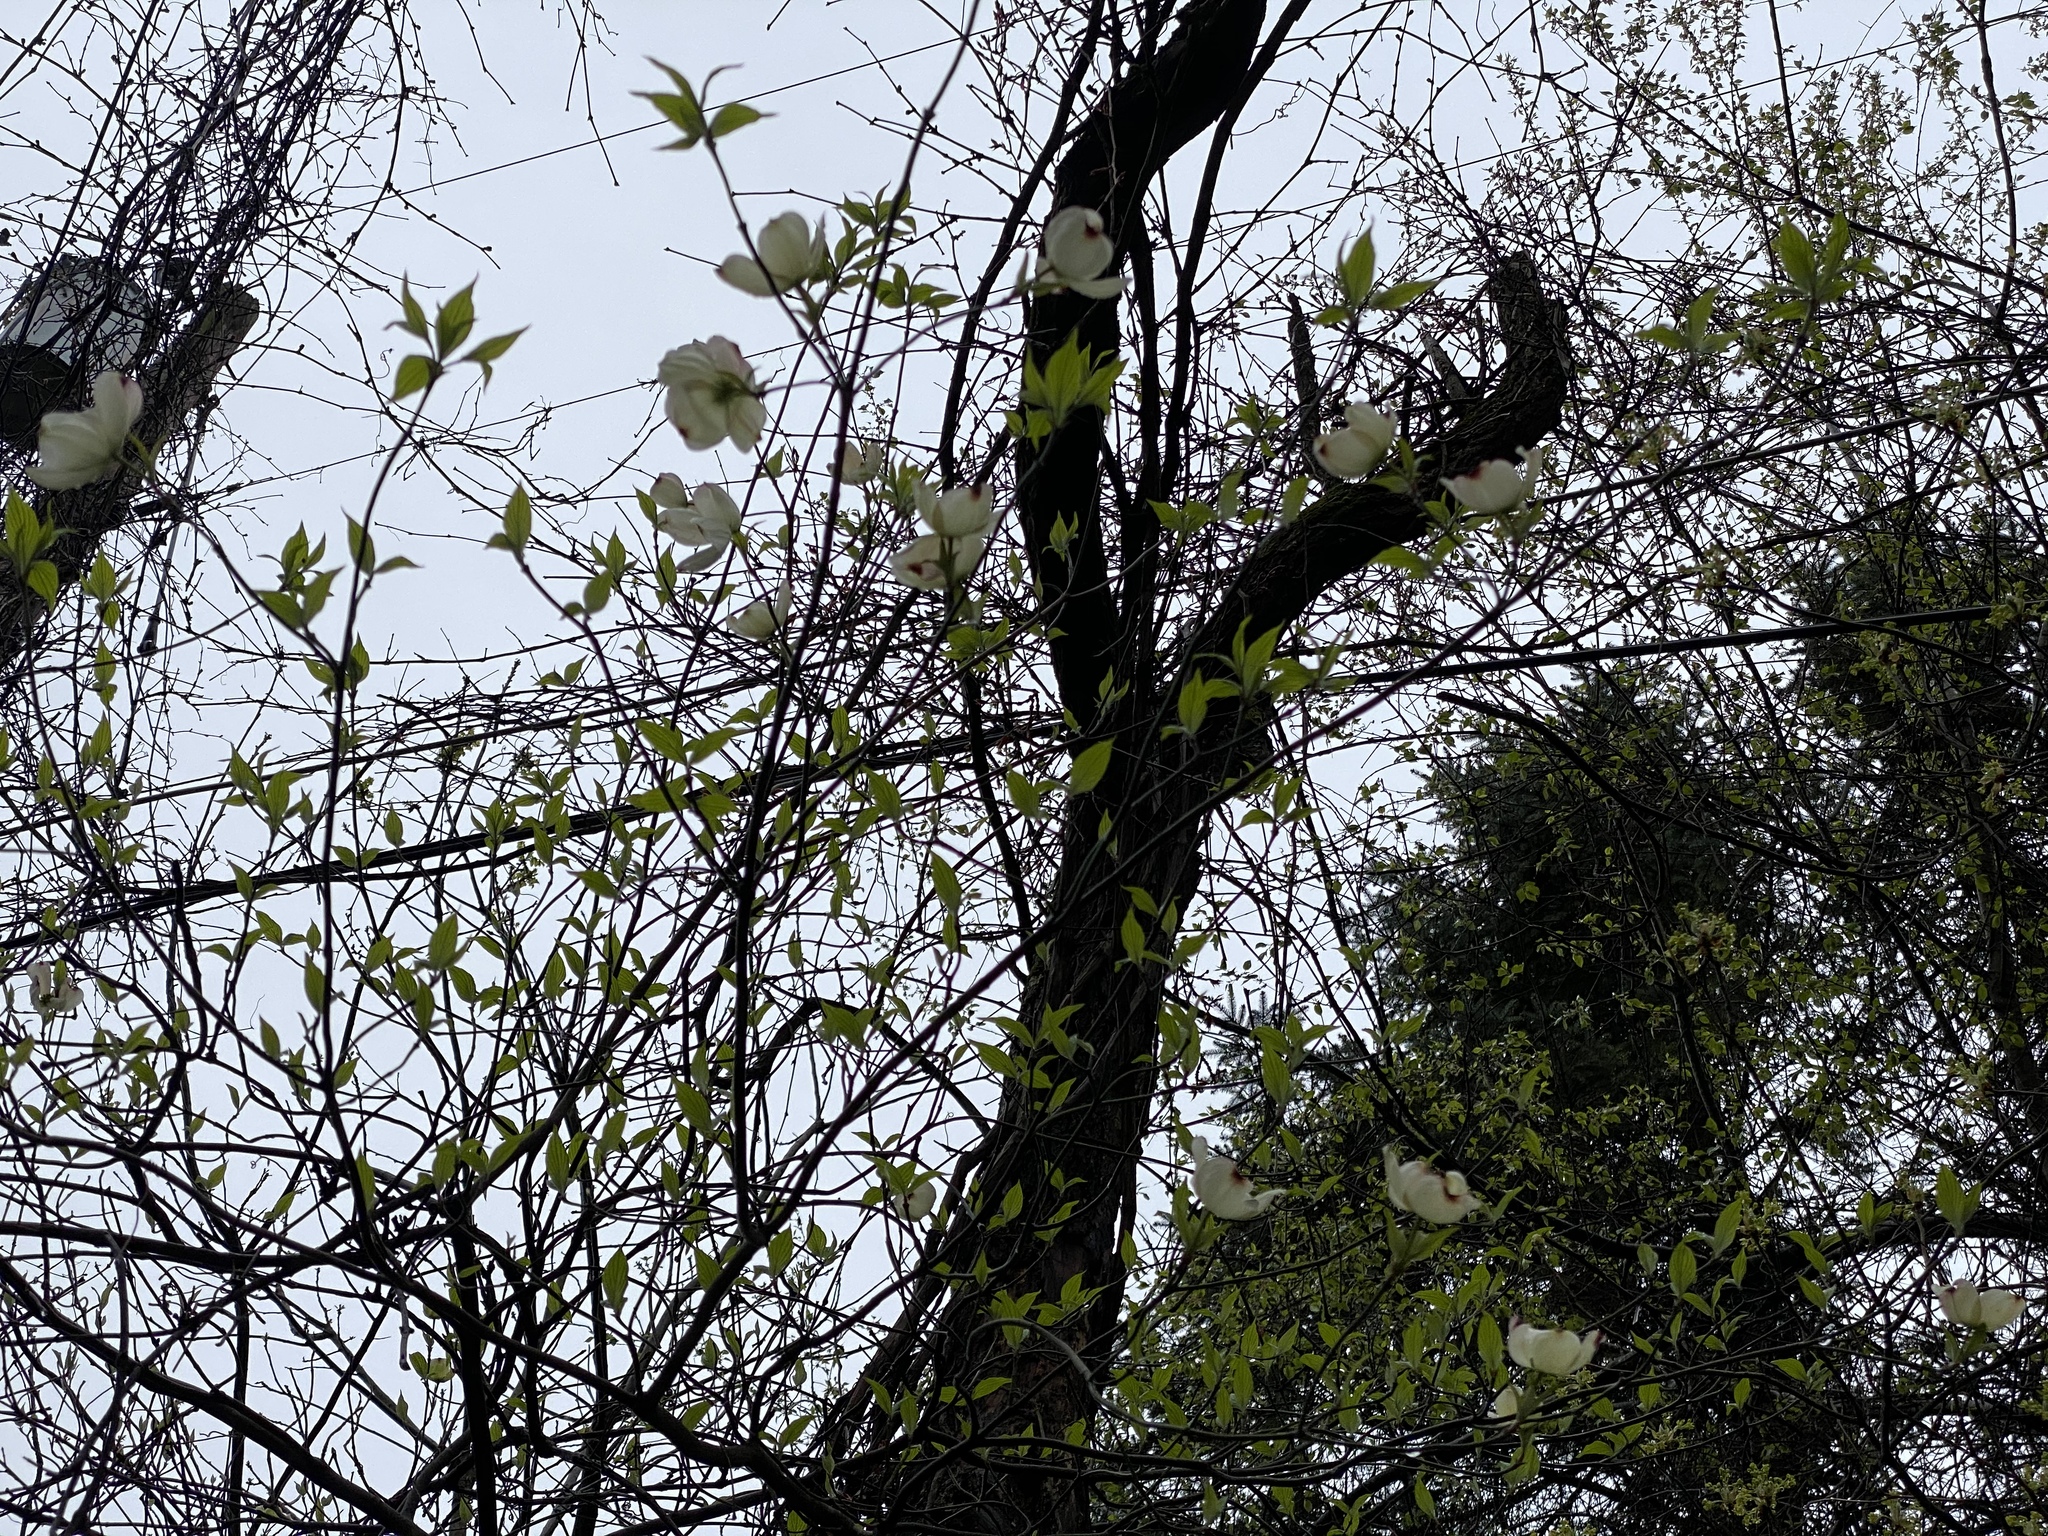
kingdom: Plantae
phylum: Tracheophyta
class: Magnoliopsida
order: Cornales
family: Cornaceae
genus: Cornus
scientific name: Cornus florida
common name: Flowering dogwood
